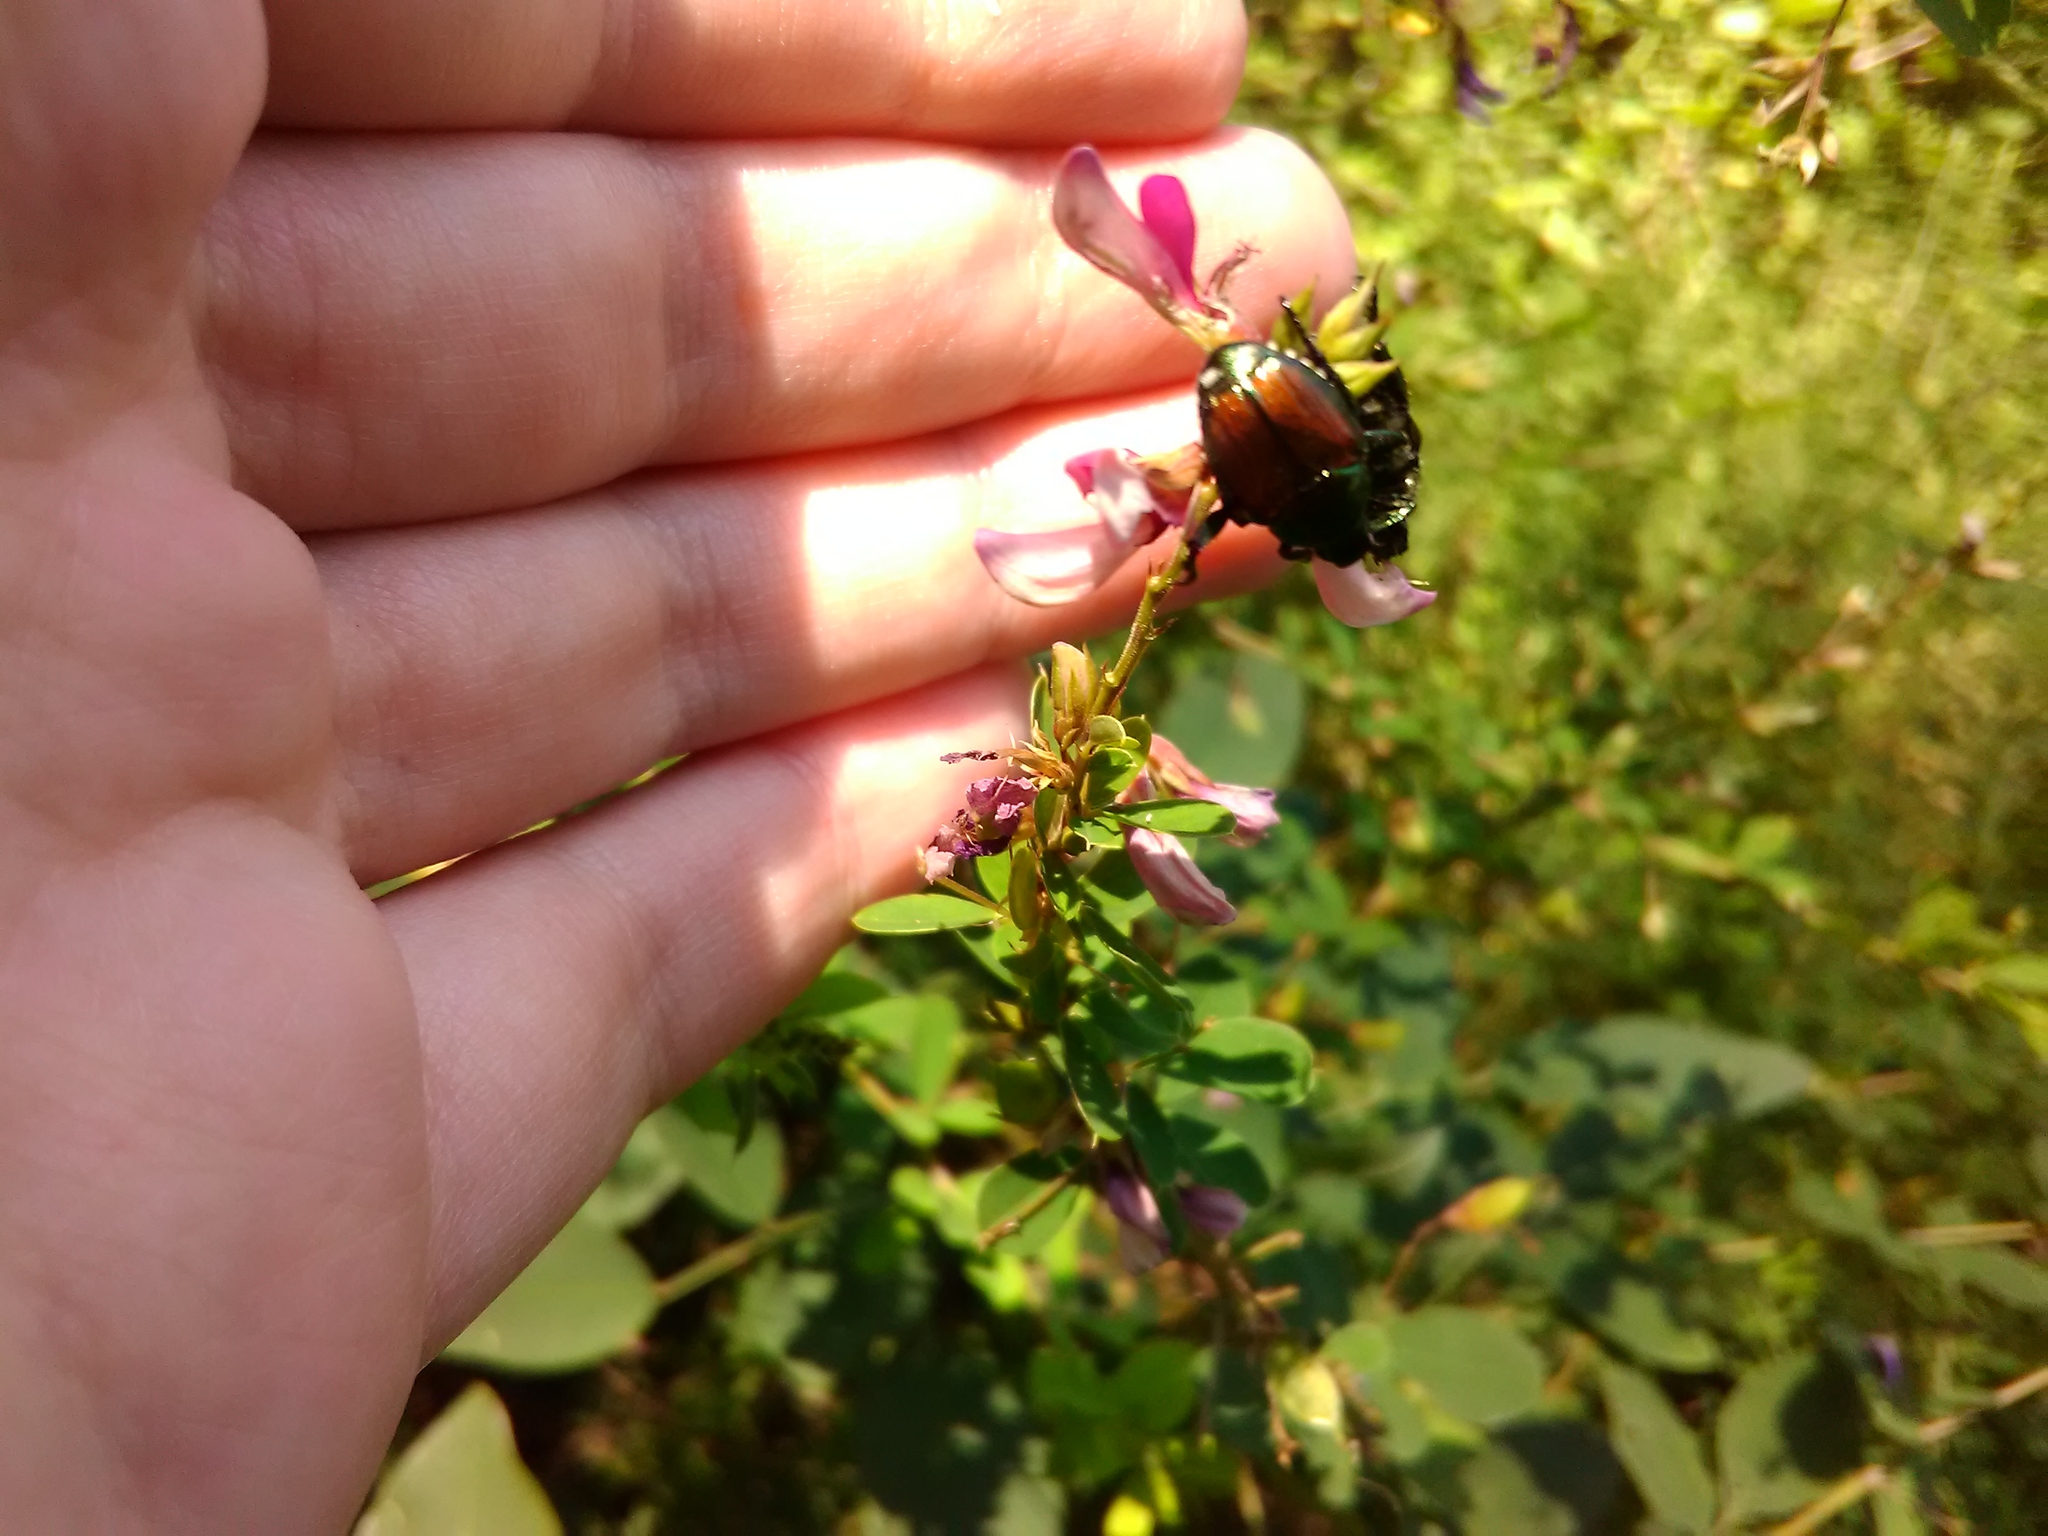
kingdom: Animalia
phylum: Arthropoda
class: Insecta
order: Coleoptera
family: Scarabaeidae
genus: Popillia
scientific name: Popillia japonica
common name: Japanese beetle
